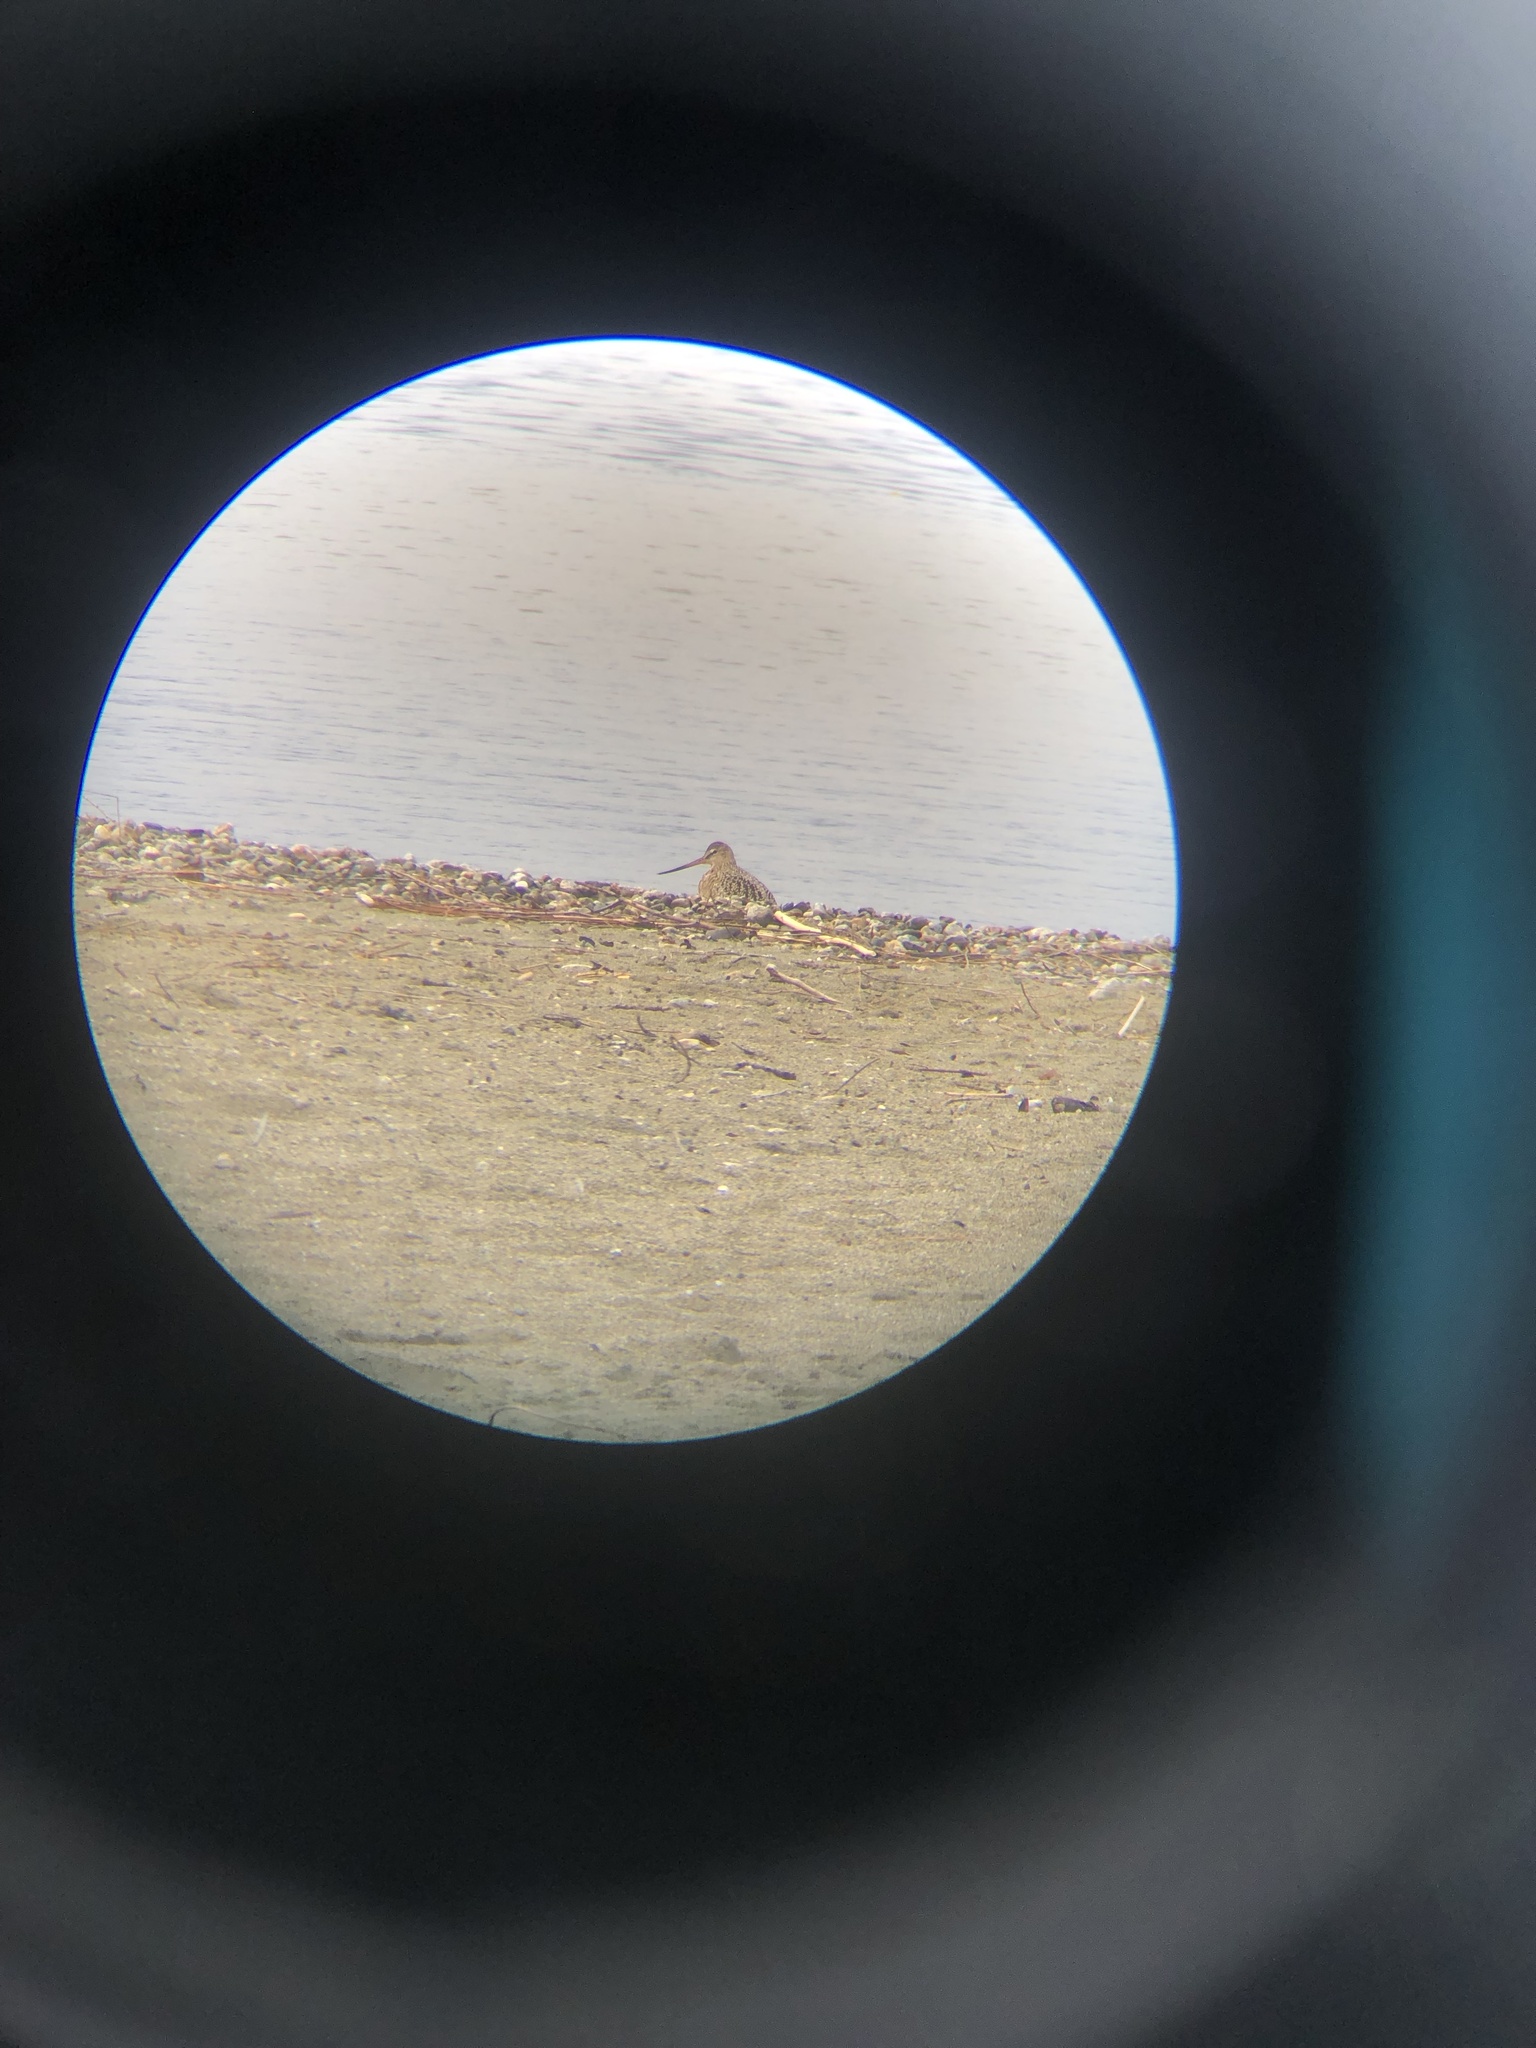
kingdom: Animalia
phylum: Chordata
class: Aves
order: Charadriiformes
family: Scolopacidae
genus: Limosa
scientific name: Limosa fedoa
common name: Marbled godwit
